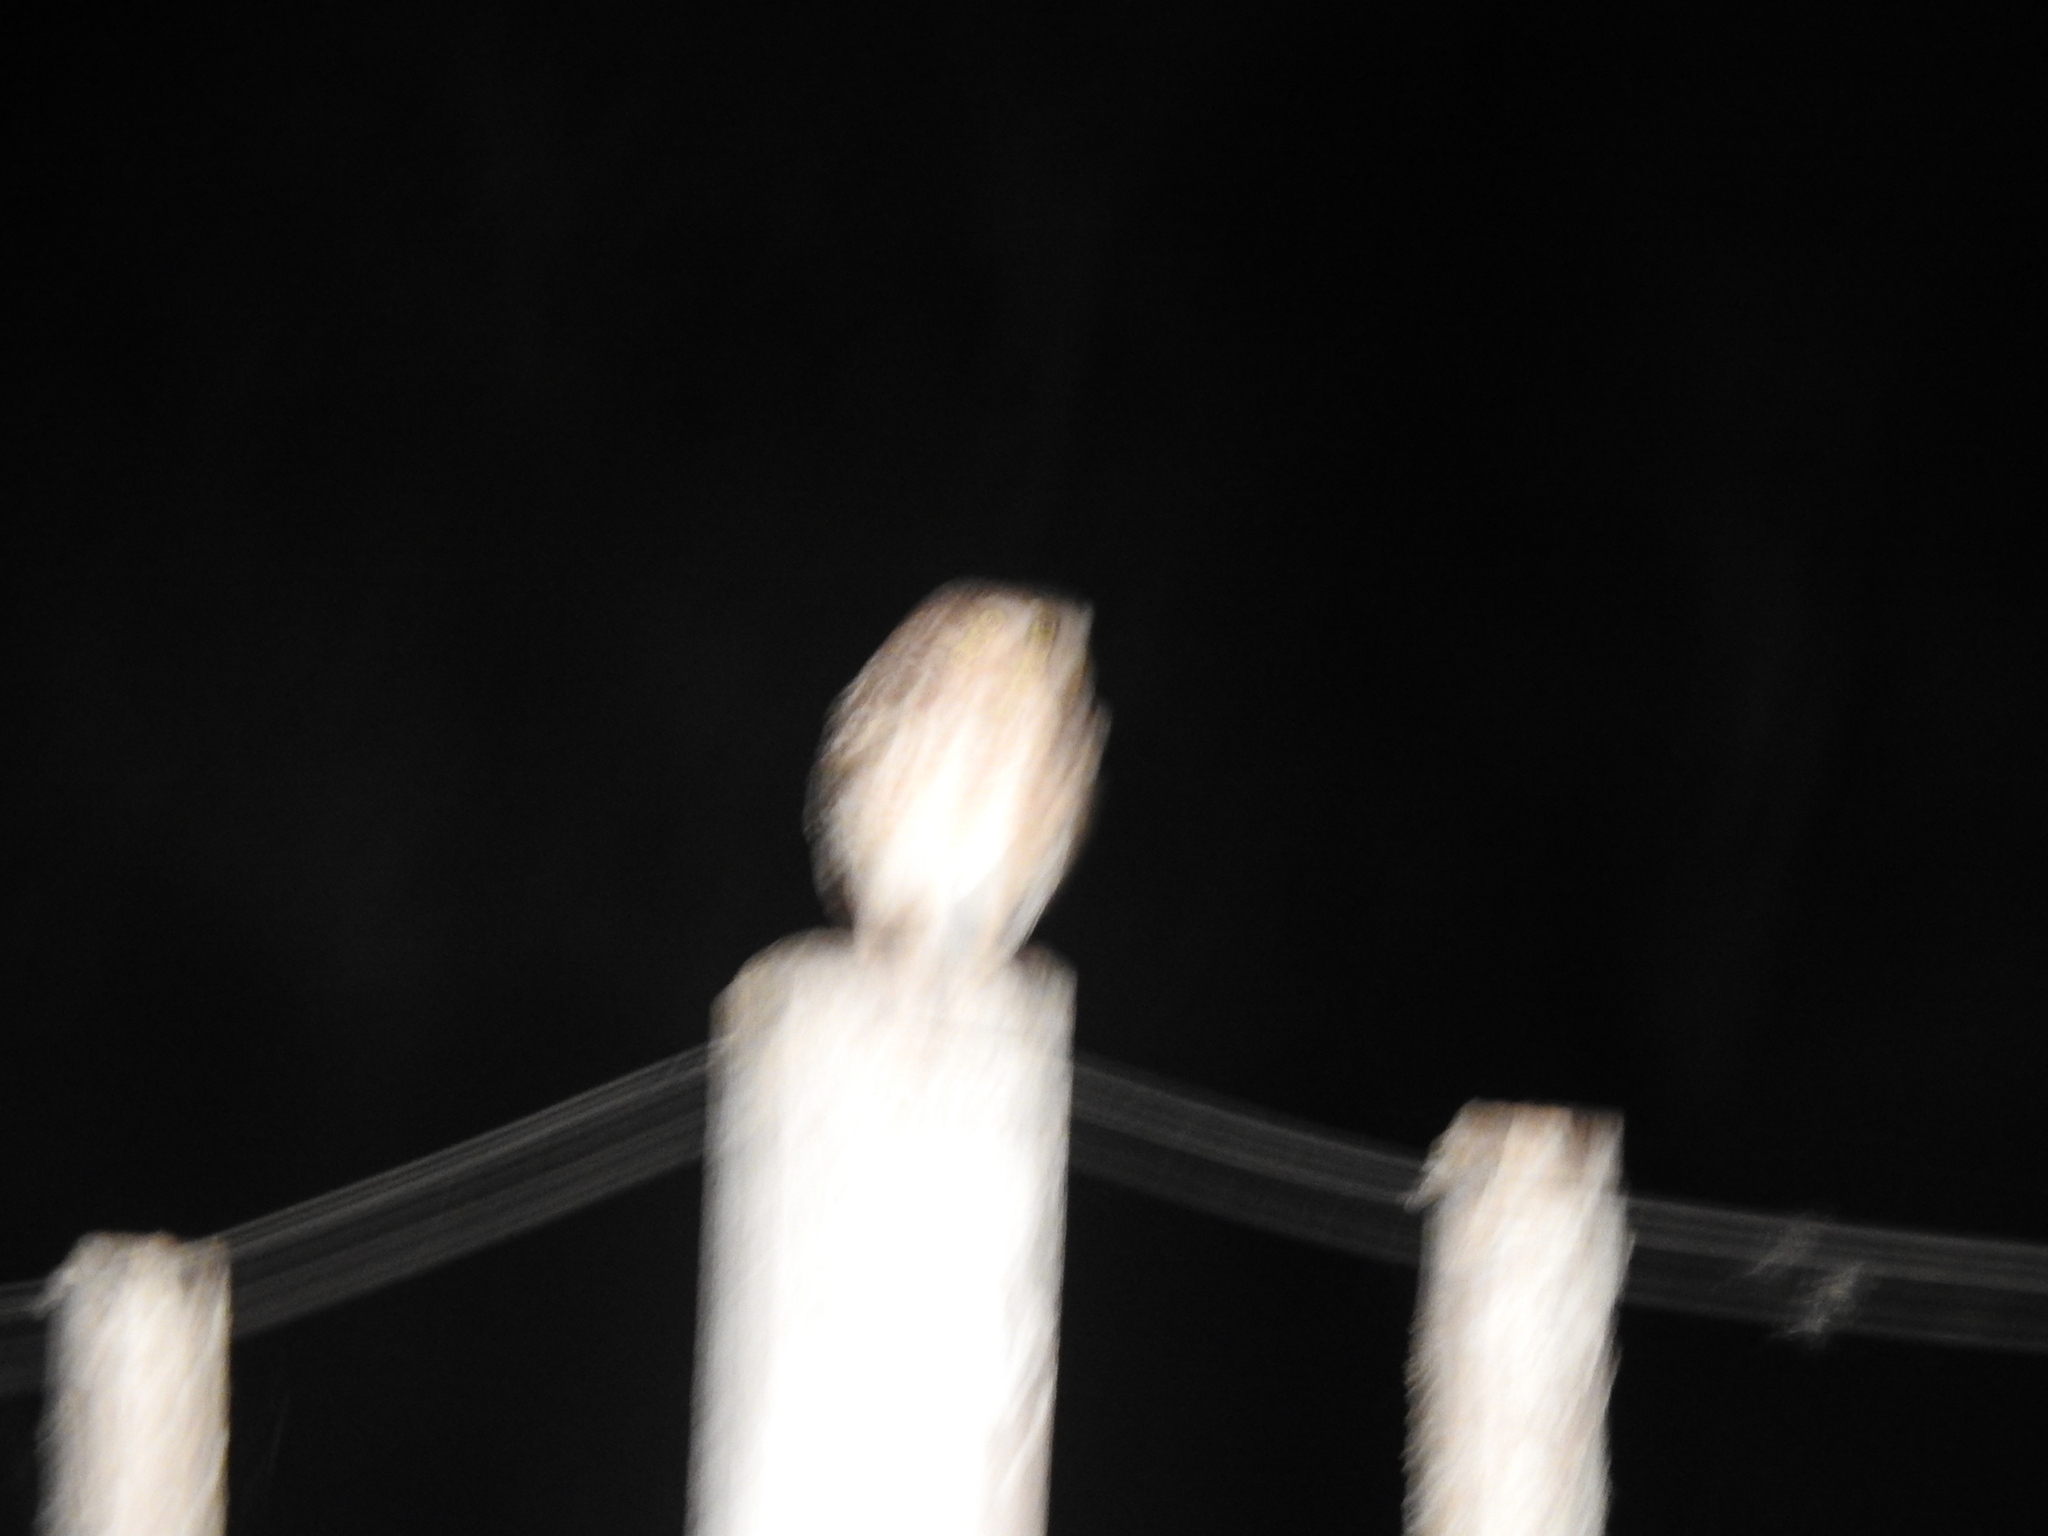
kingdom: Animalia
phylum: Chordata
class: Aves
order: Strigiformes
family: Strigidae
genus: Athene
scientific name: Athene cunicularia
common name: Burrowing owl
